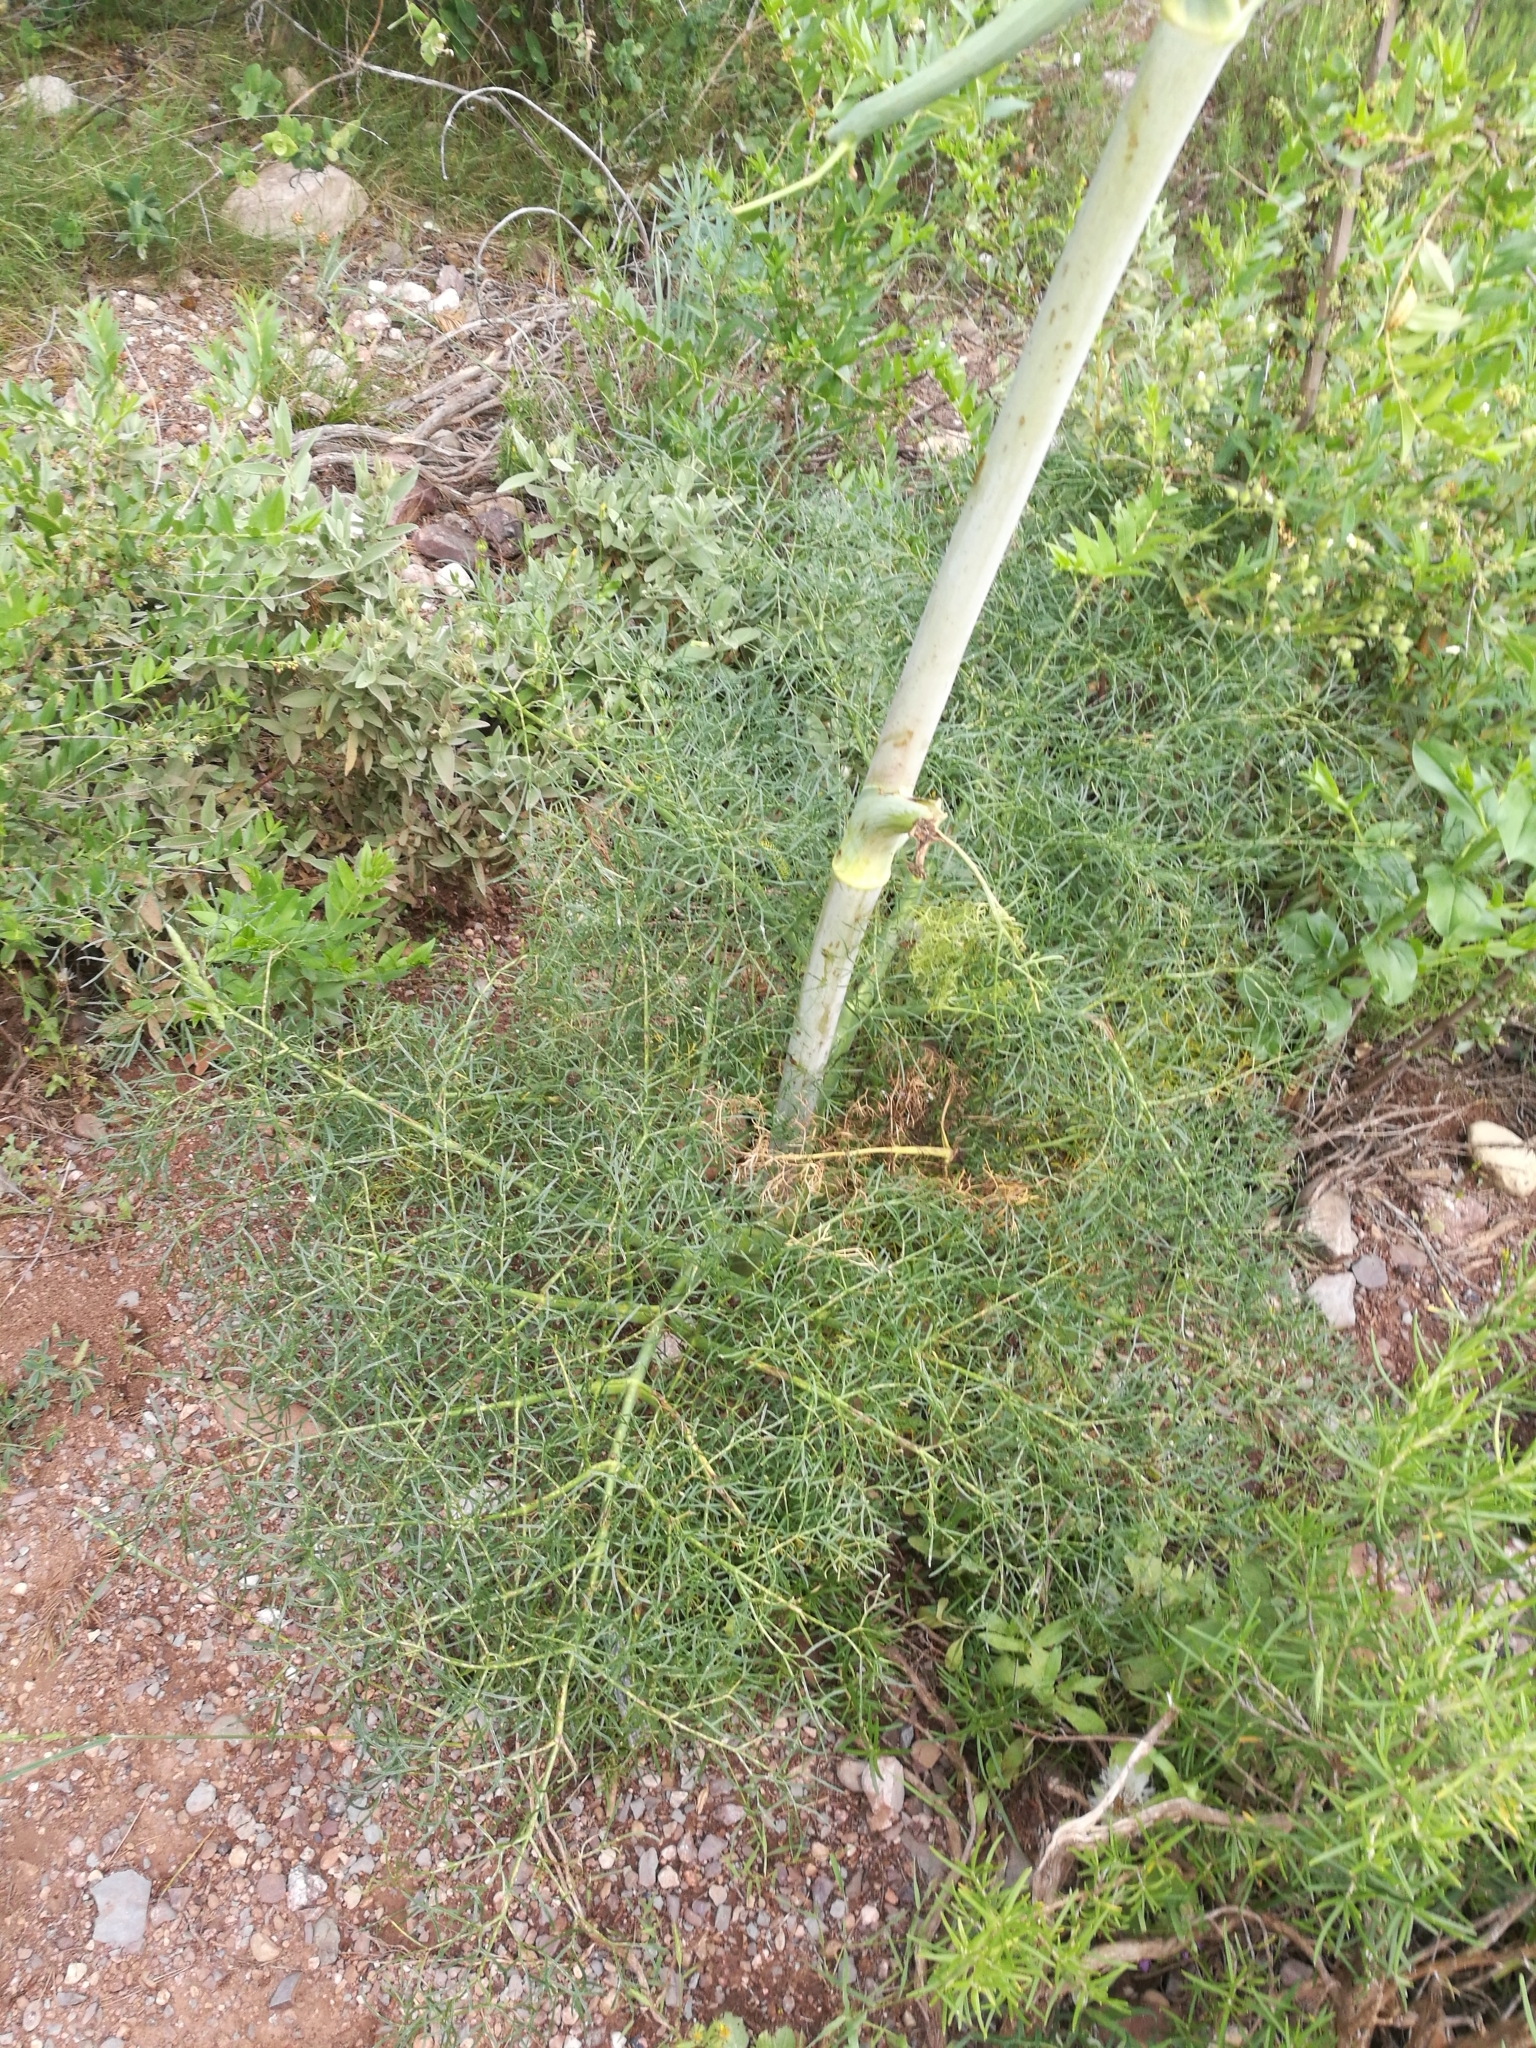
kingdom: Plantae
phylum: Tracheophyta
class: Magnoliopsida
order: Apiales
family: Apiaceae
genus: Foeniculum
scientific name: Foeniculum vulgare
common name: Fennel
